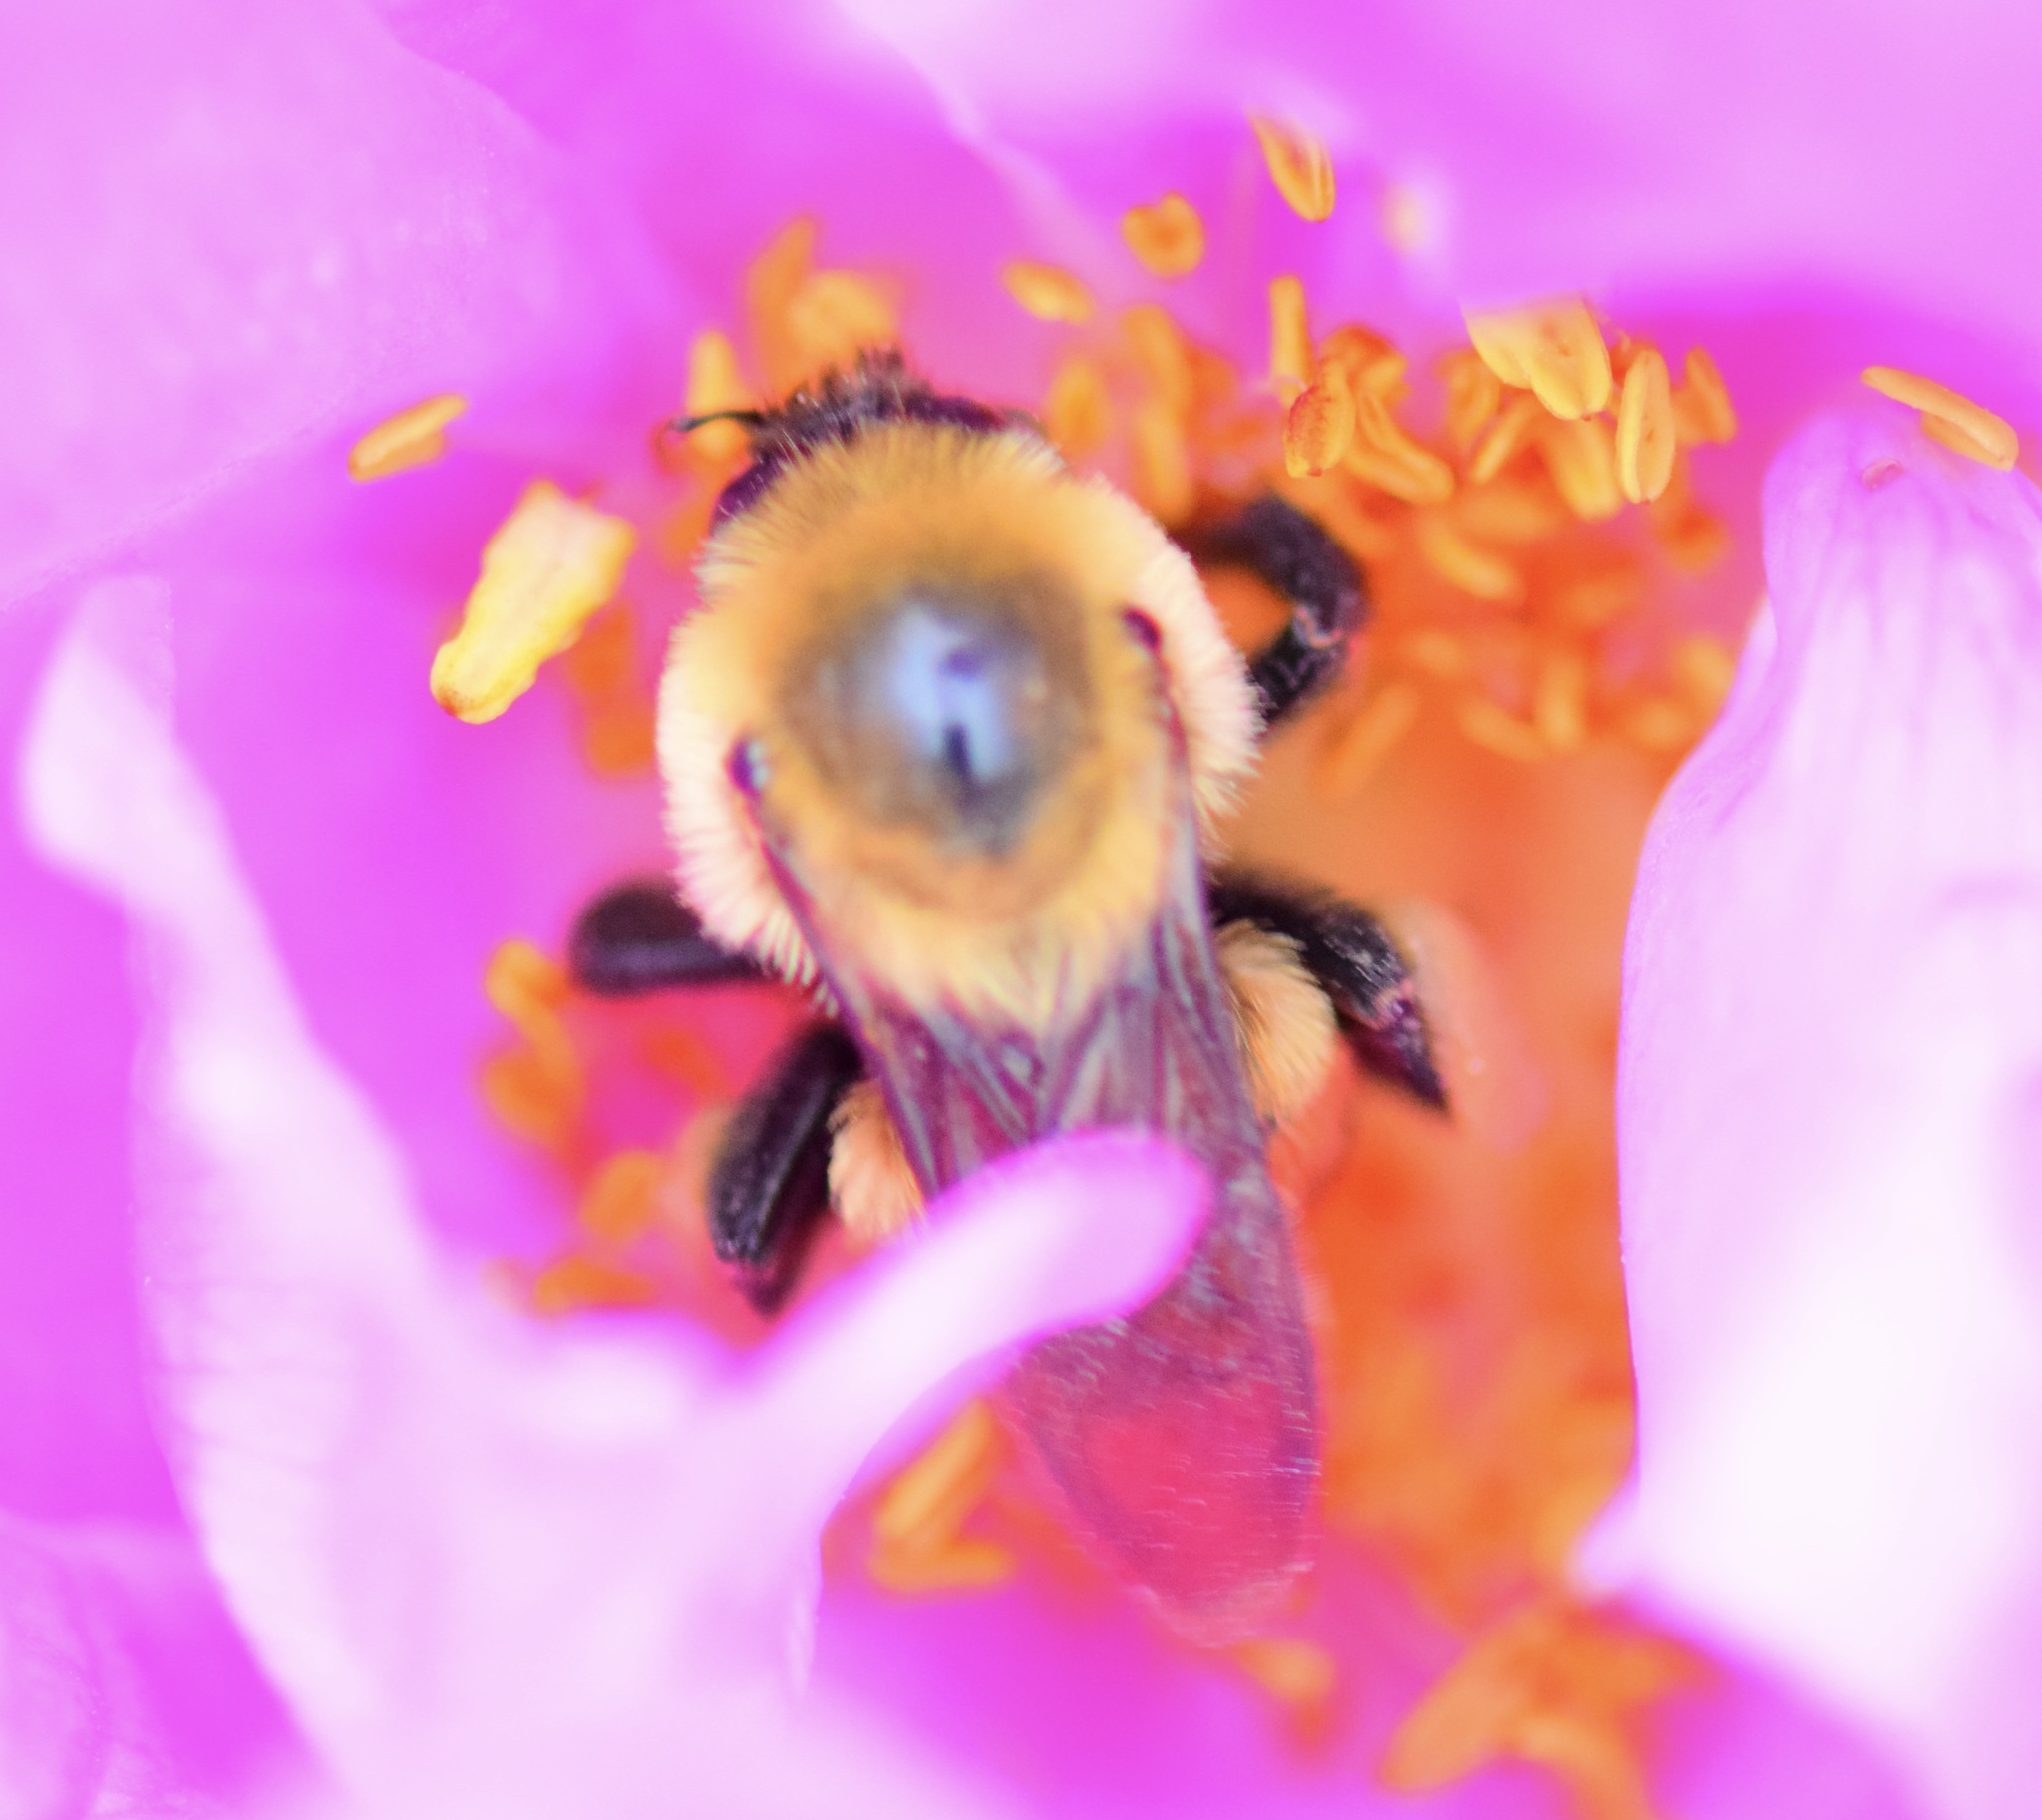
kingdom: Animalia
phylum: Arthropoda
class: Insecta
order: Hymenoptera
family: Apidae
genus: Bombus
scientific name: Bombus griseocollis
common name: Brown-belted bumble bee
